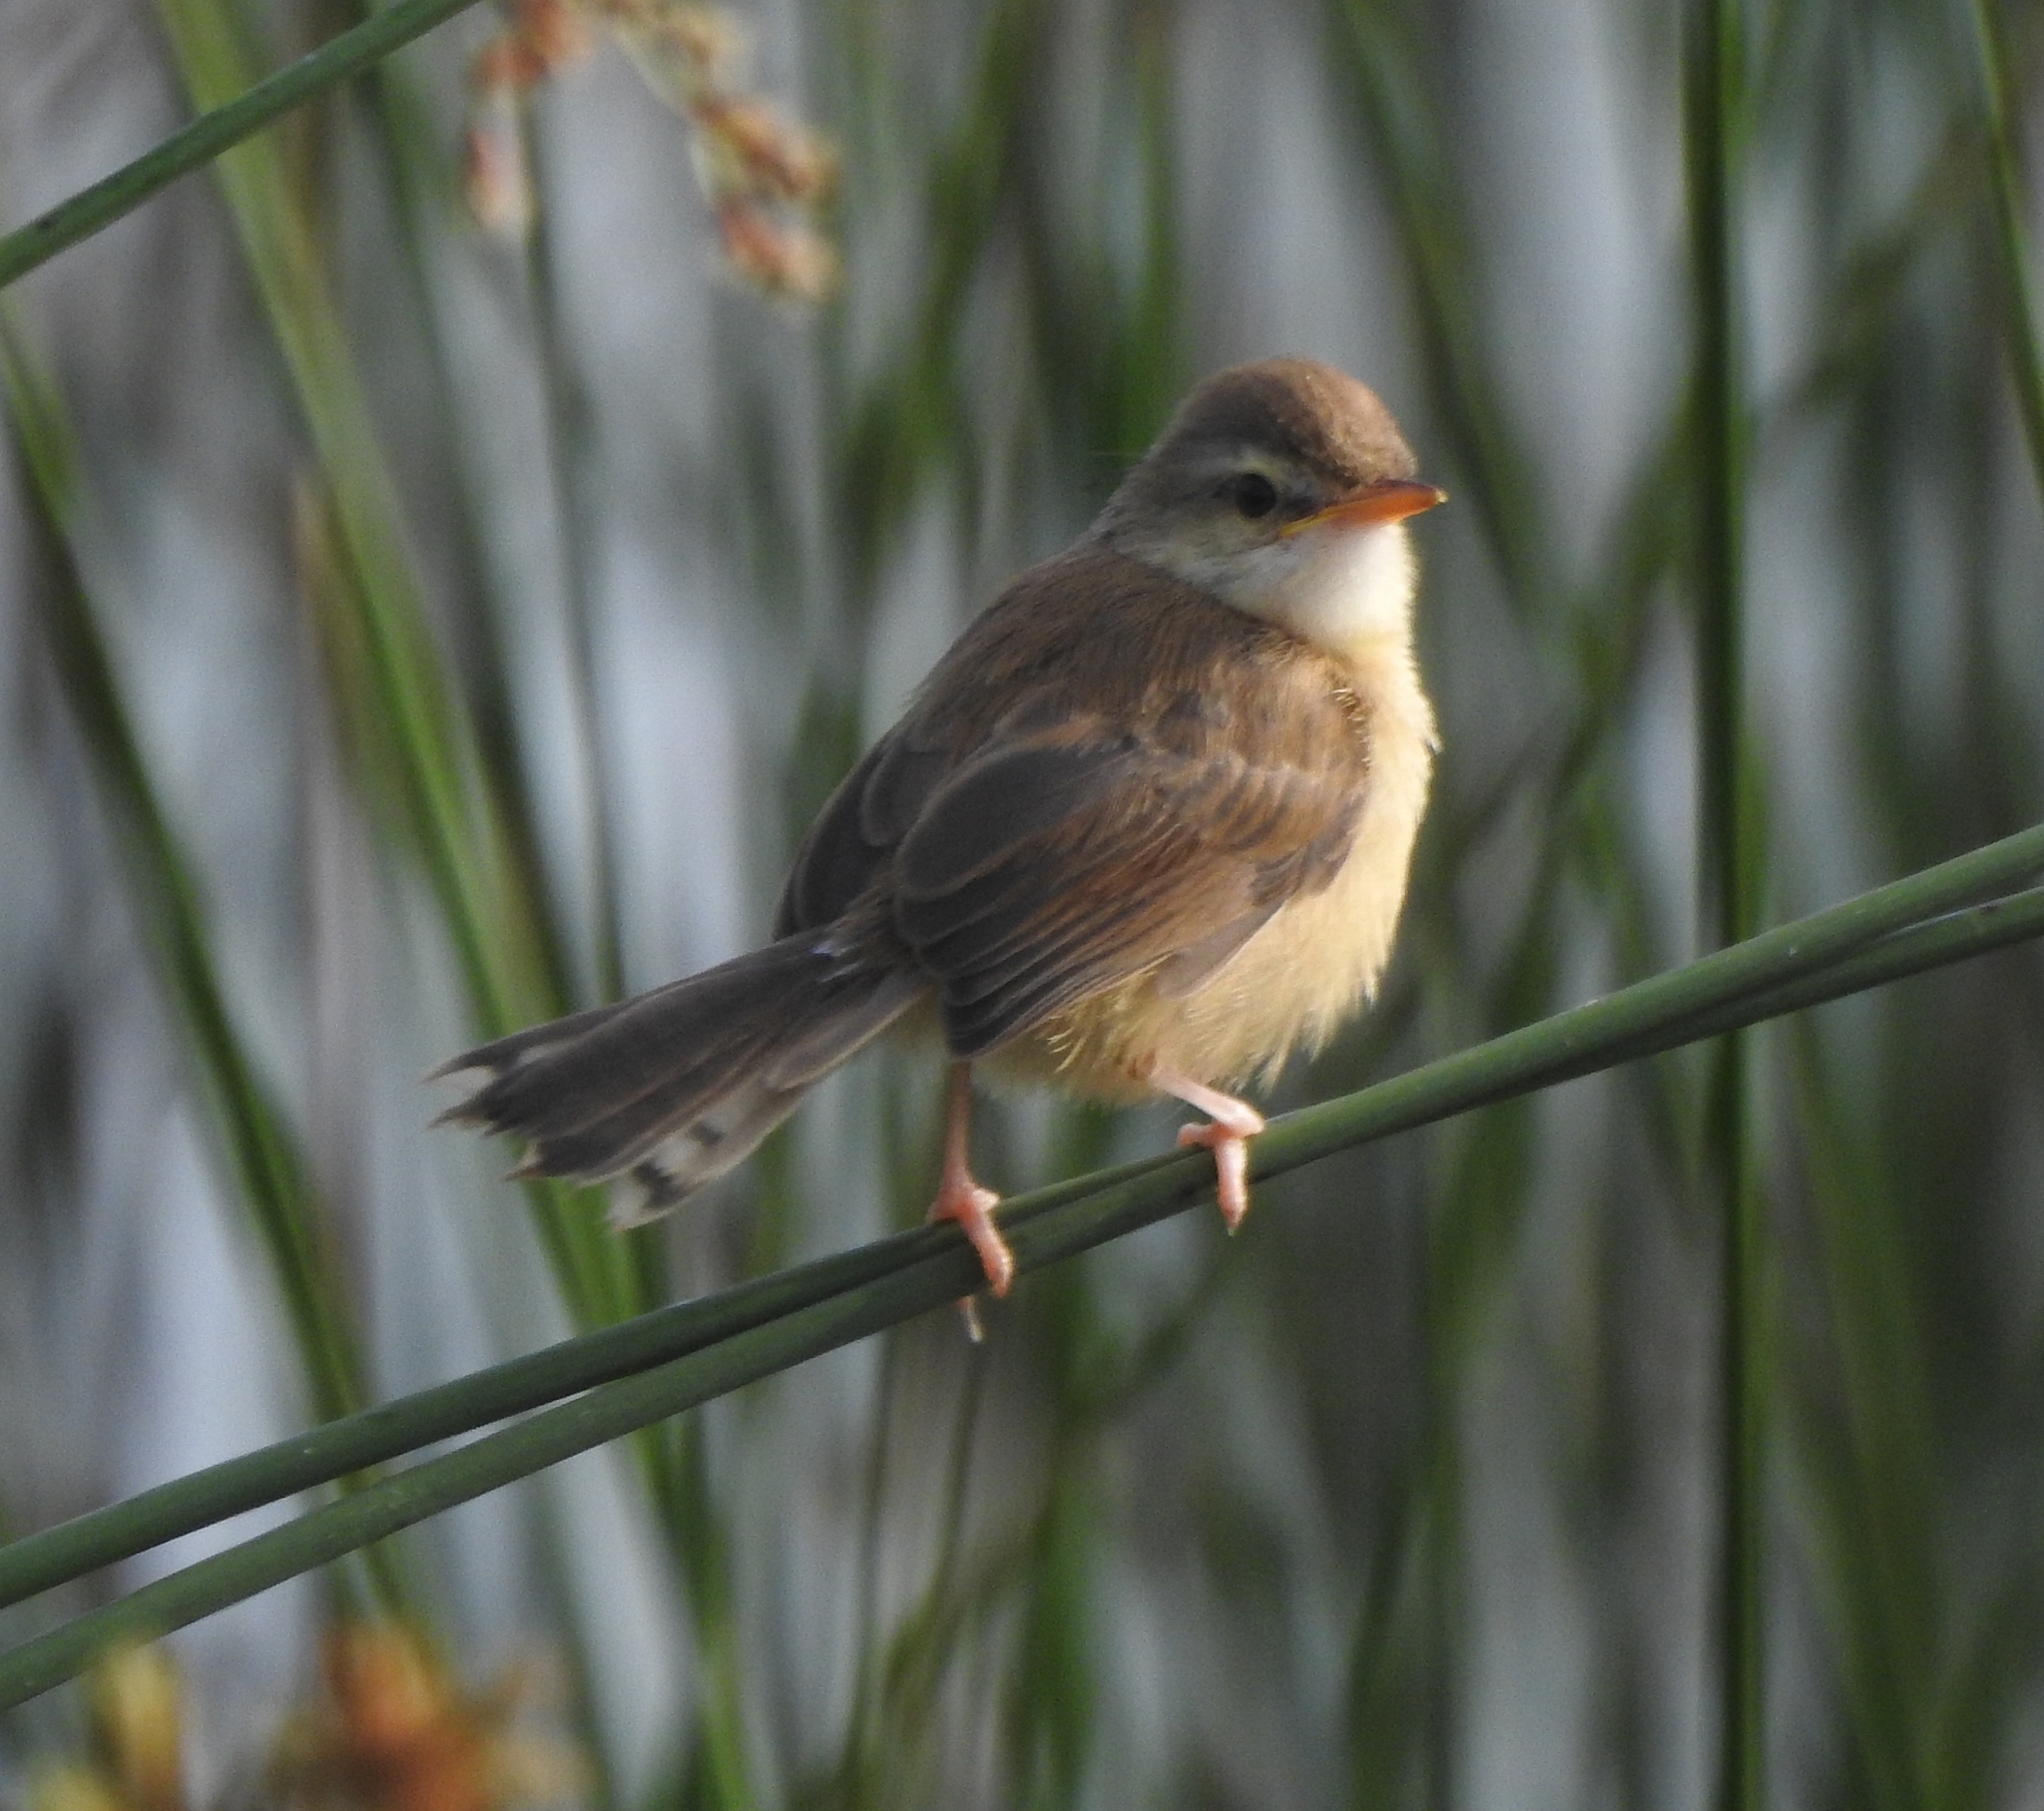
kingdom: Animalia
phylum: Chordata
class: Aves
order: Passeriformes
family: Cisticolidae
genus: Prinia
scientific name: Prinia inornata
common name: Plain prinia
